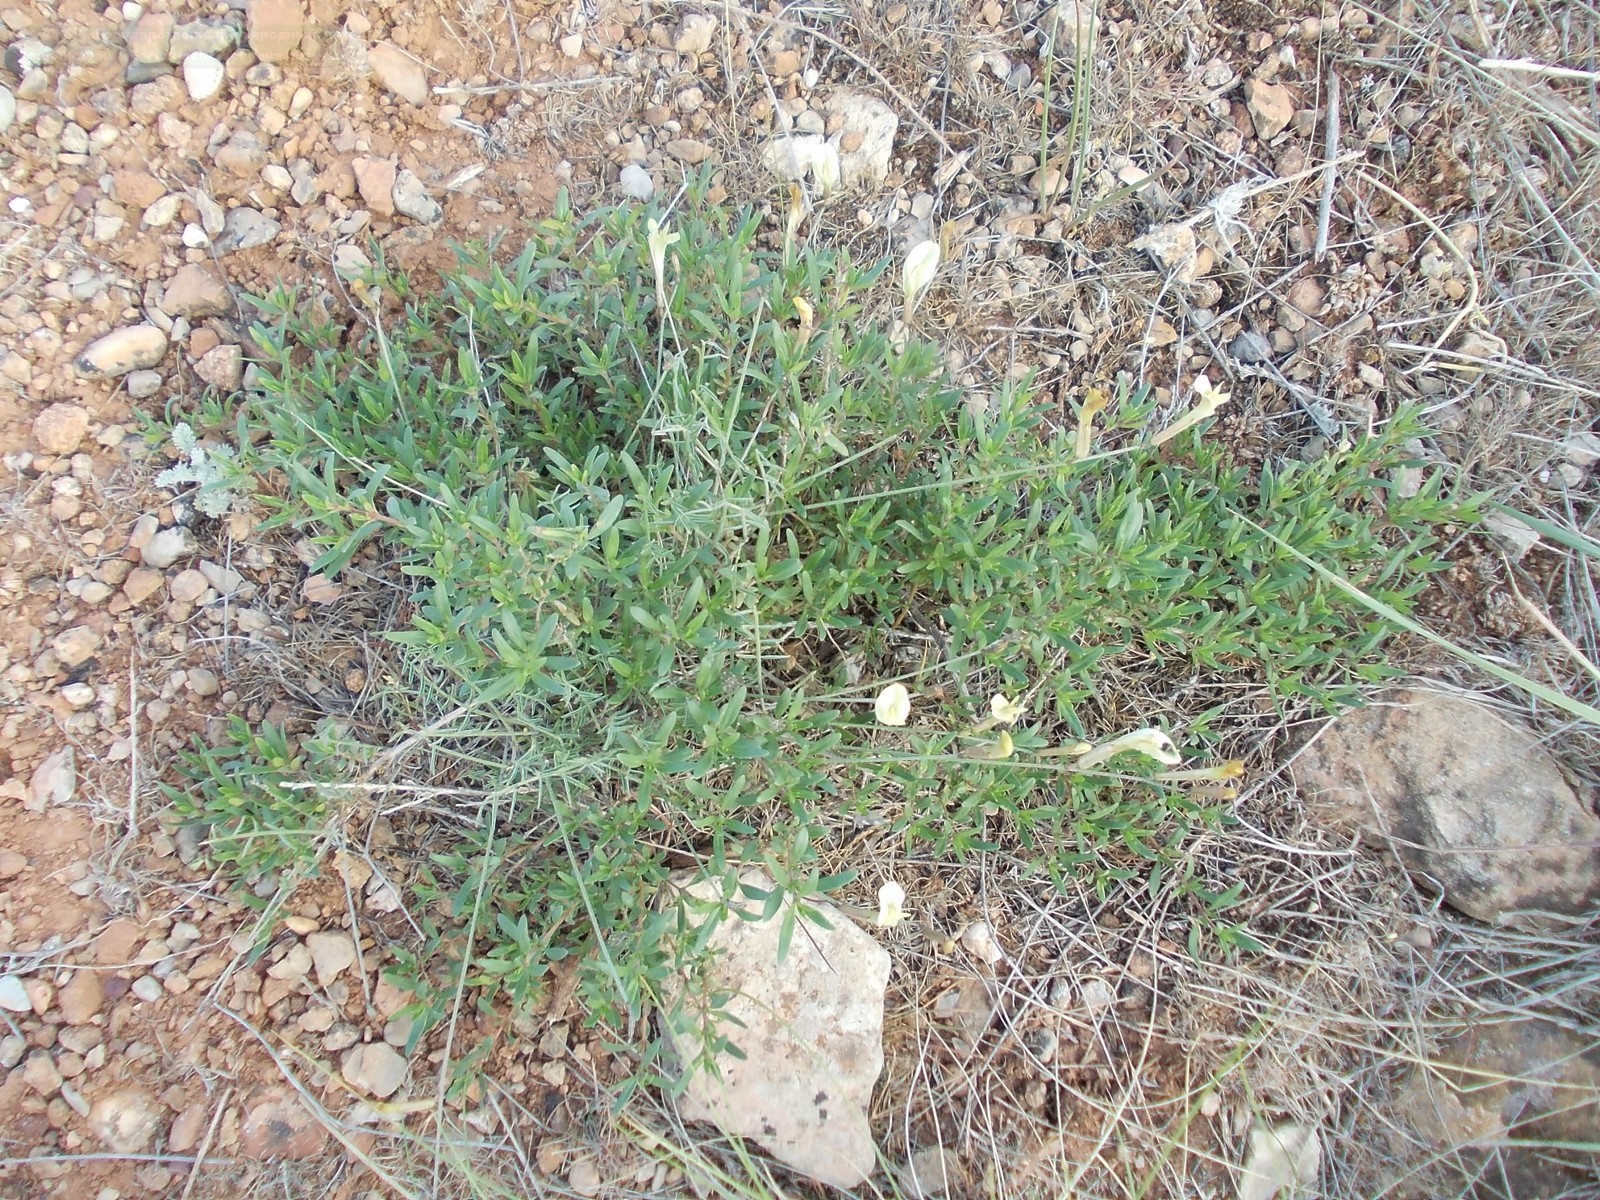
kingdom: Plantae
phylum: Tracheophyta
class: Magnoliopsida
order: Fabales
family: Fabaceae
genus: Astragalus
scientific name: Astragalus ucrainicus
